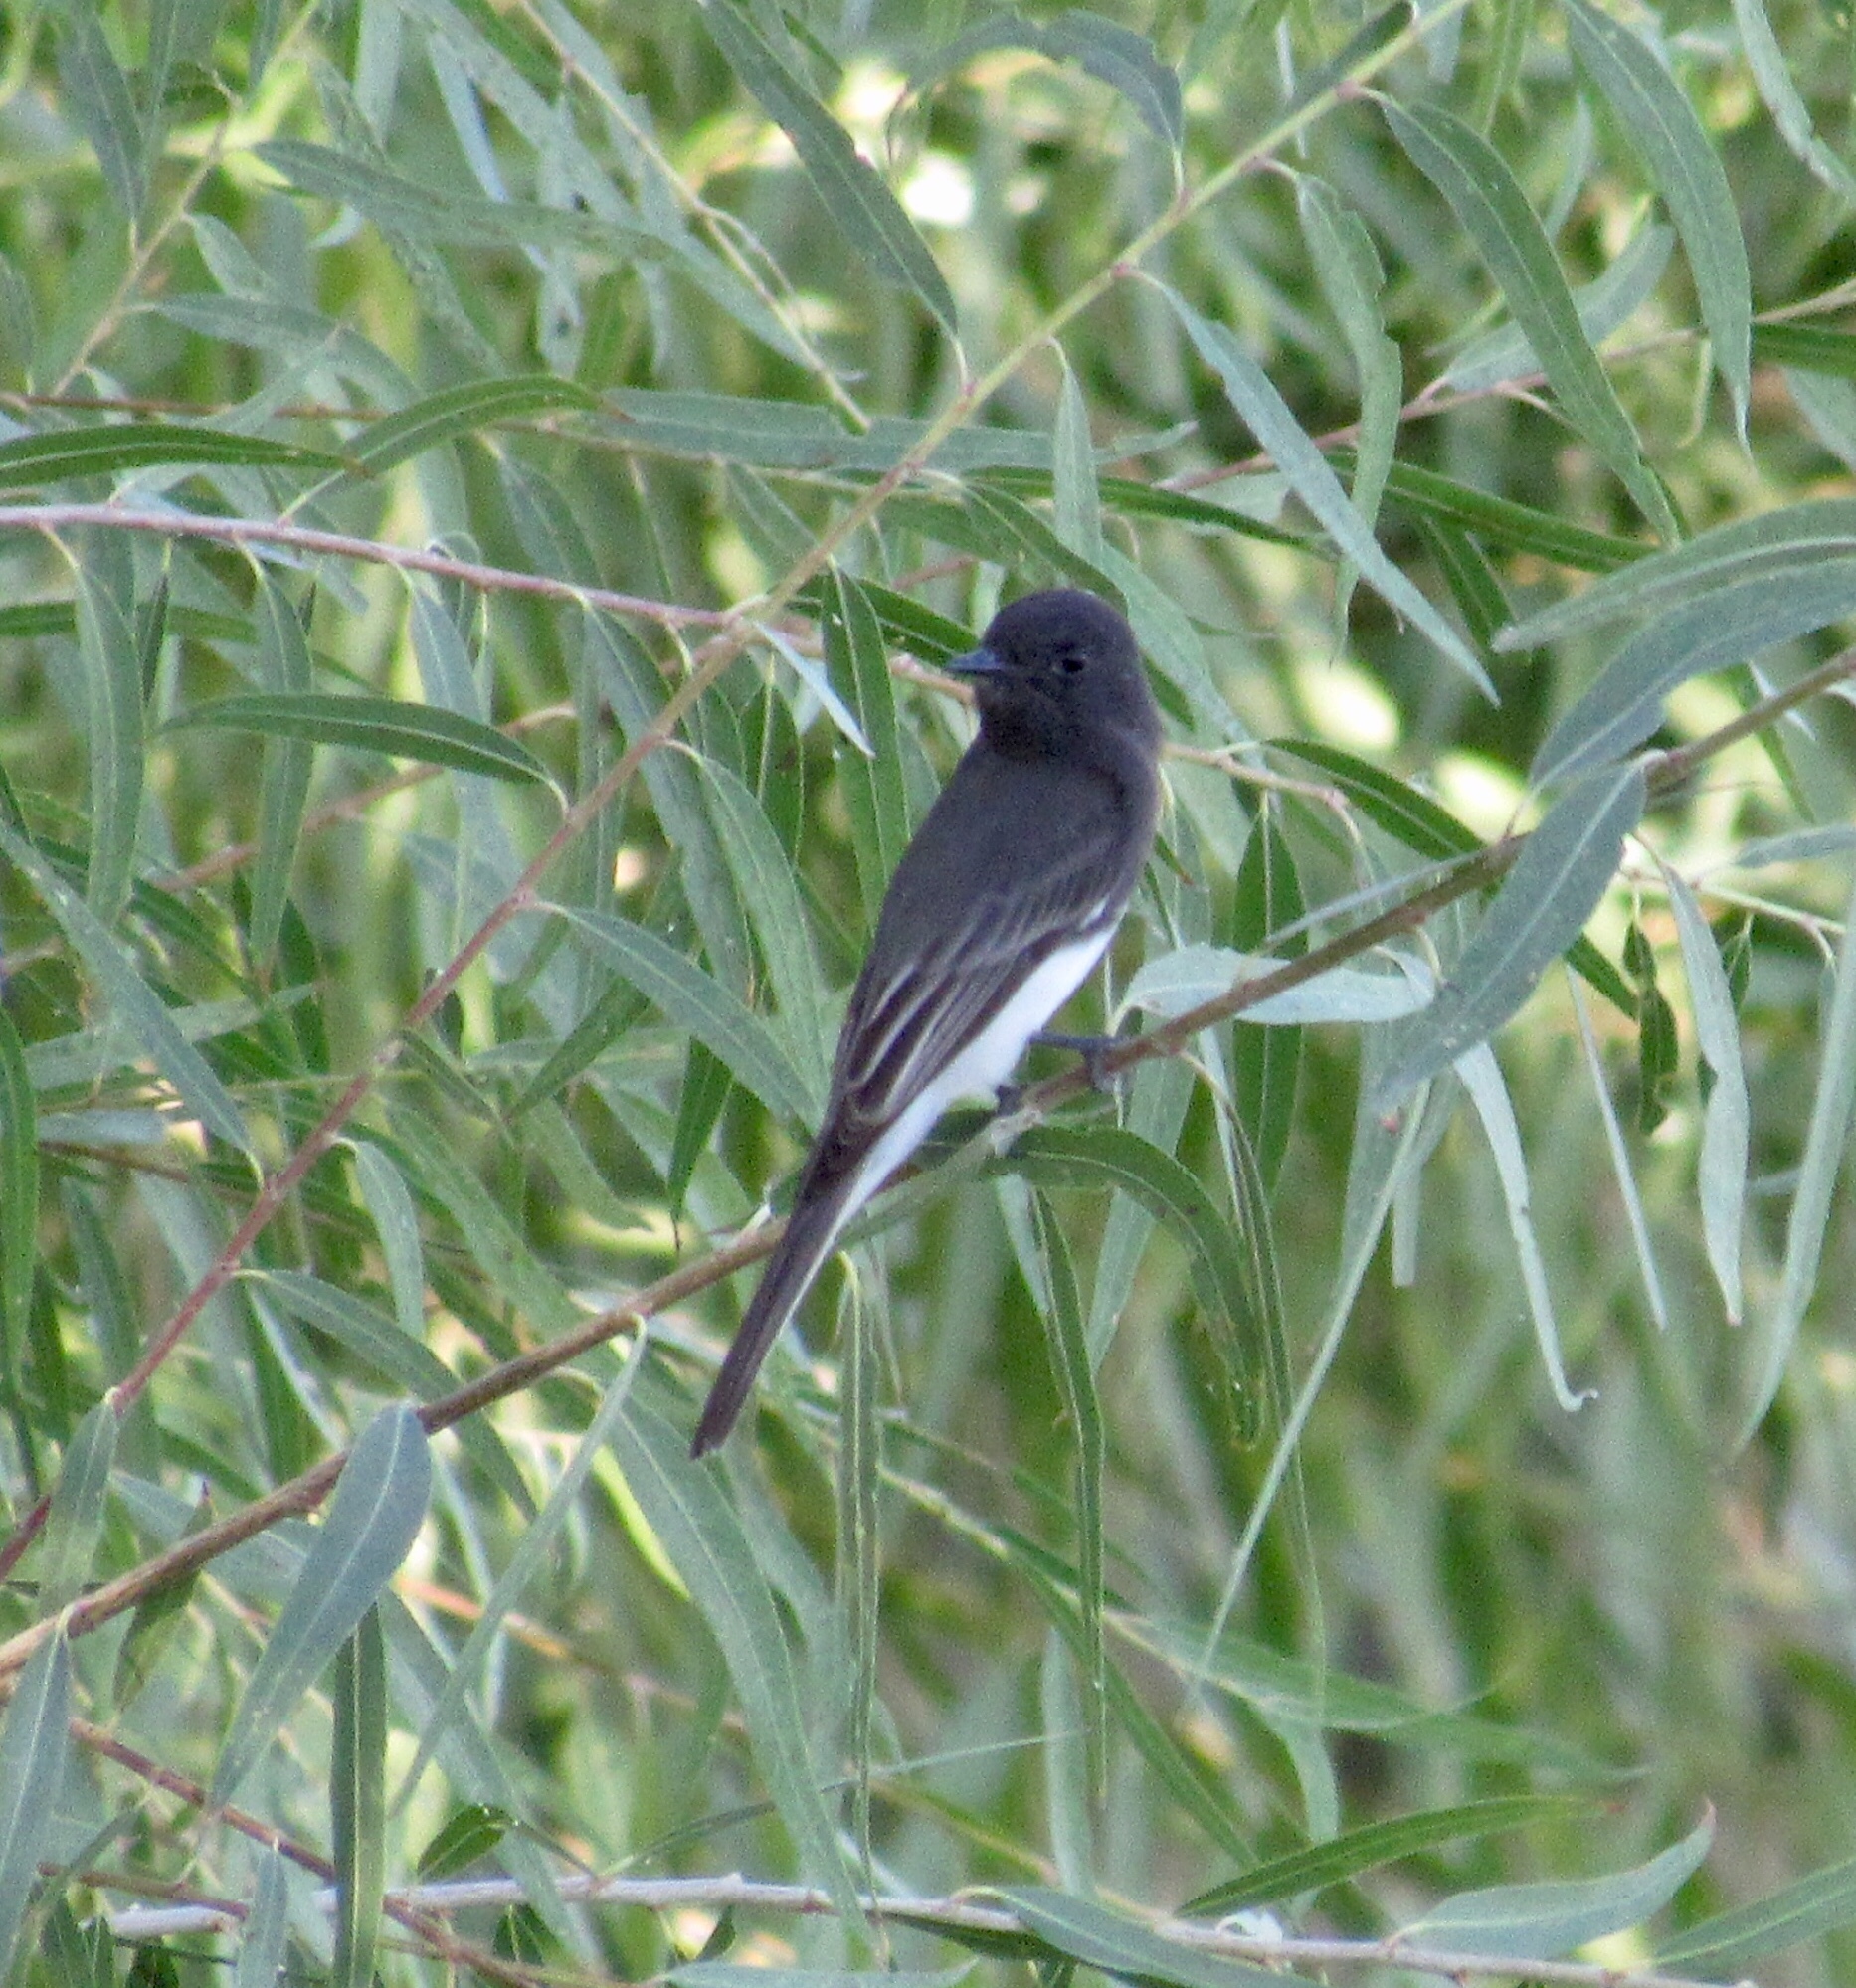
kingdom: Animalia
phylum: Chordata
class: Aves
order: Passeriformes
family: Tyrannidae
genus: Sayornis
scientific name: Sayornis nigricans
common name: Black phoebe
